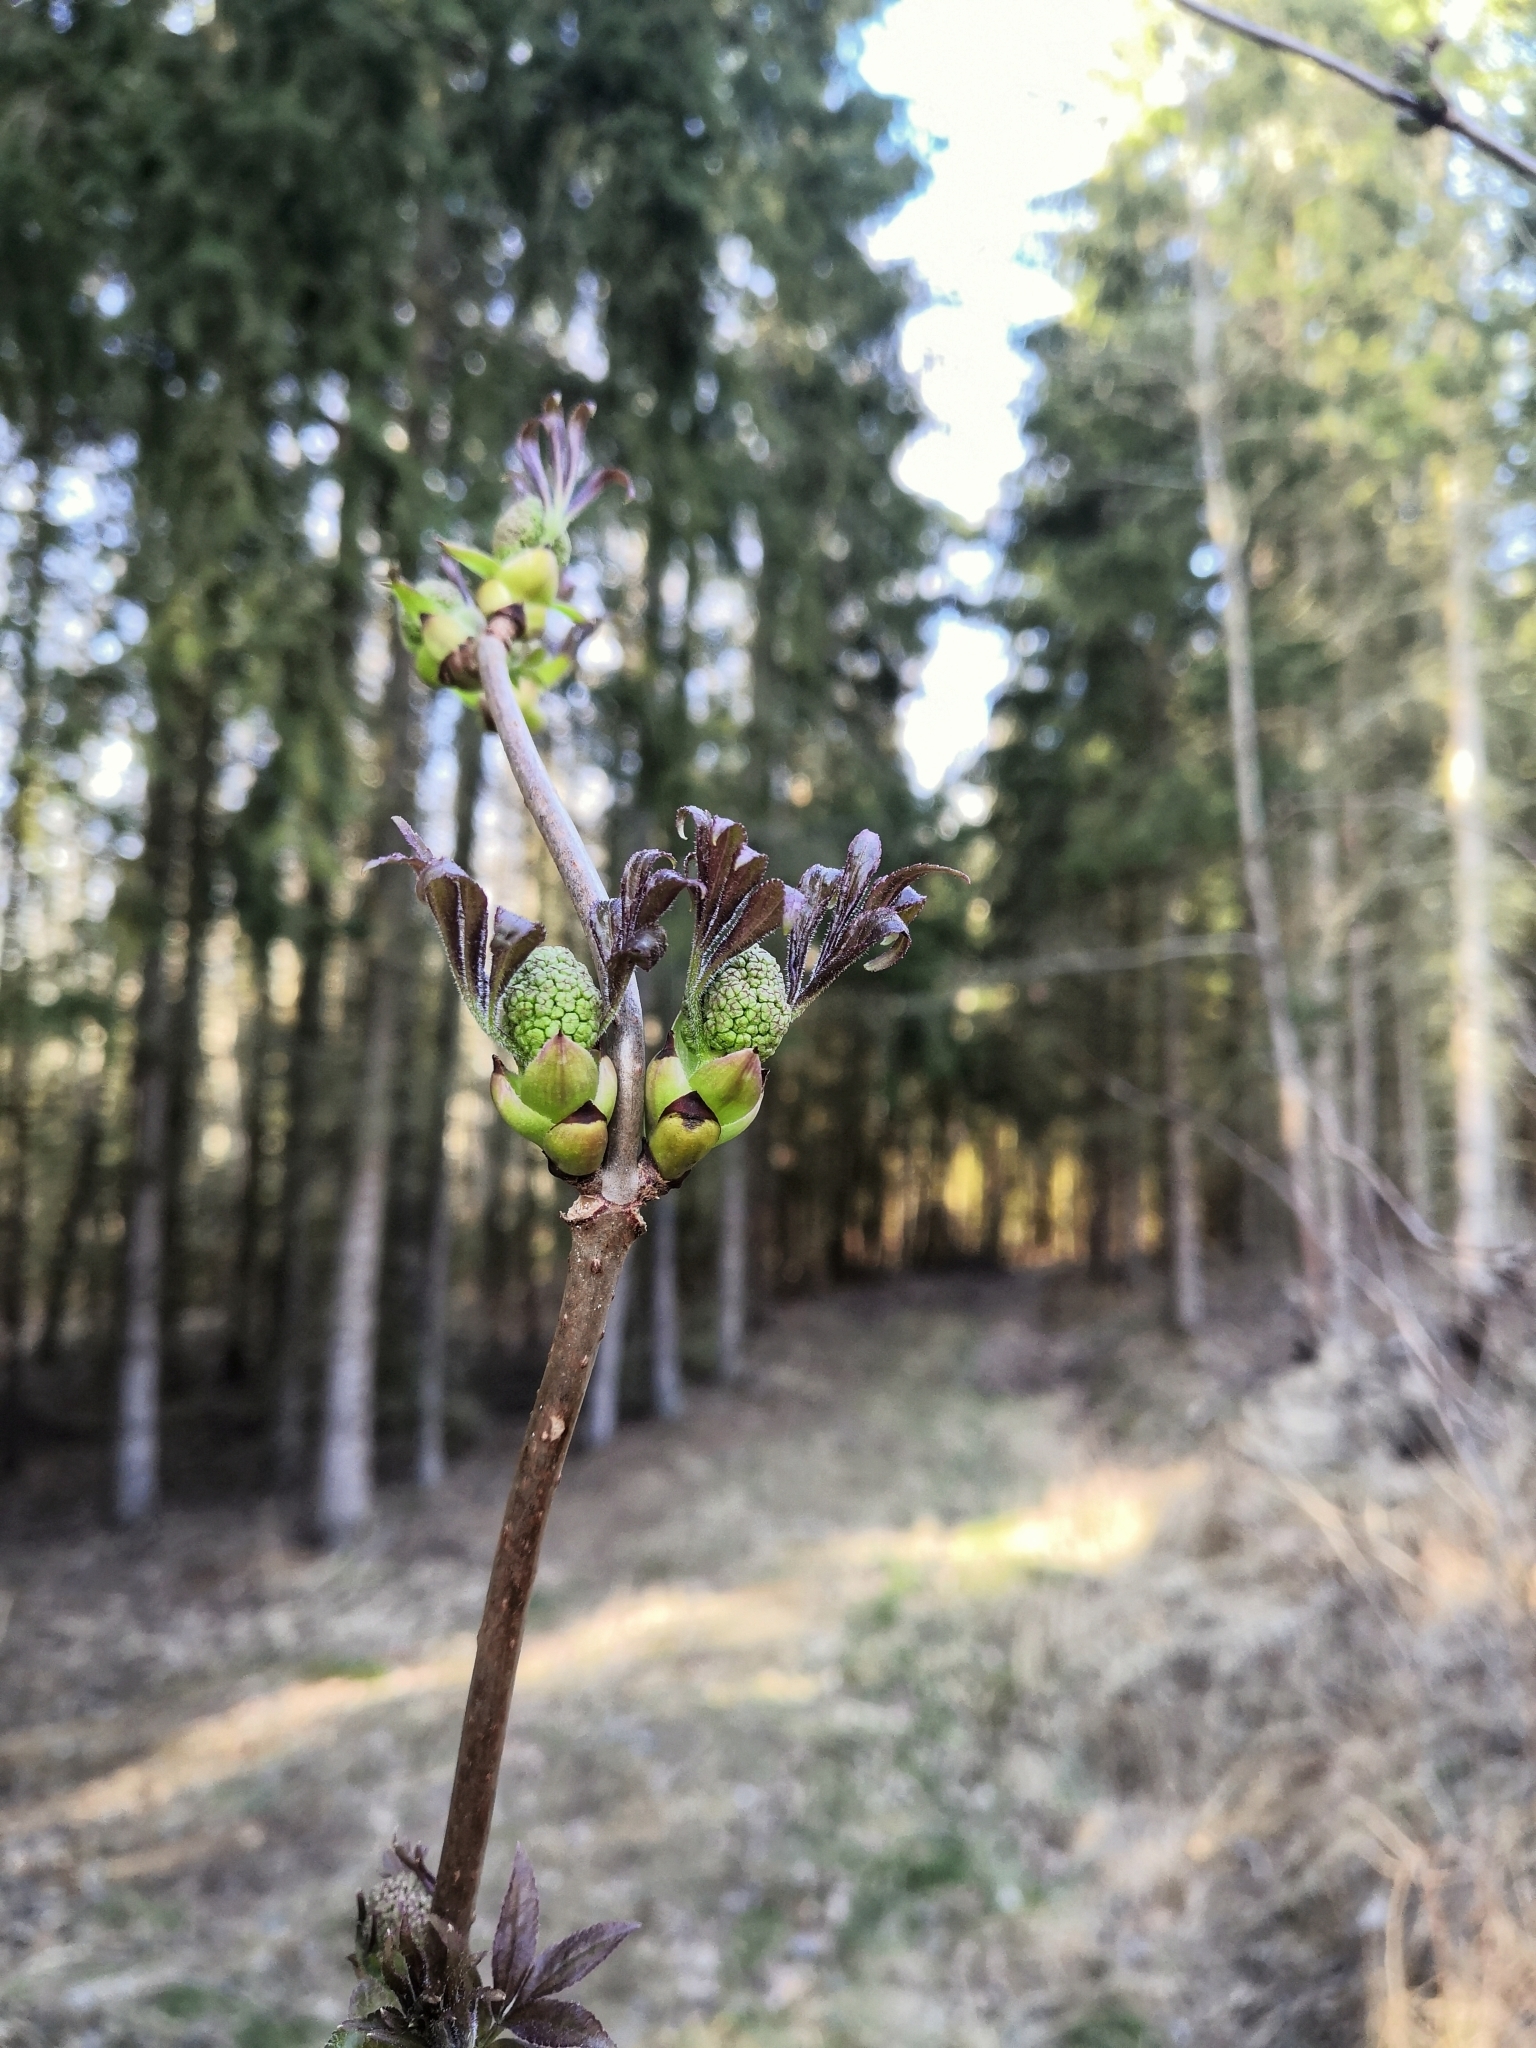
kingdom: Plantae
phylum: Tracheophyta
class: Magnoliopsida
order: Dipsacales
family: Viburnaceae
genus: Sambucus
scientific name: Sambucus racemosa
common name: Red-berried elder
